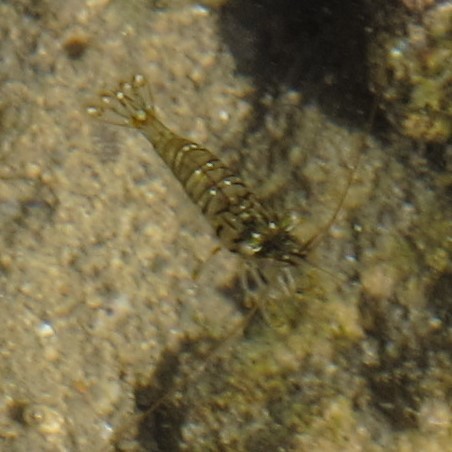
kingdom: Animalia
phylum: Arthropoda
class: Malacostraca
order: Decapoda
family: Palaemonidae
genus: Palaemon
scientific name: Palaemon elegans
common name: Grass prawm
